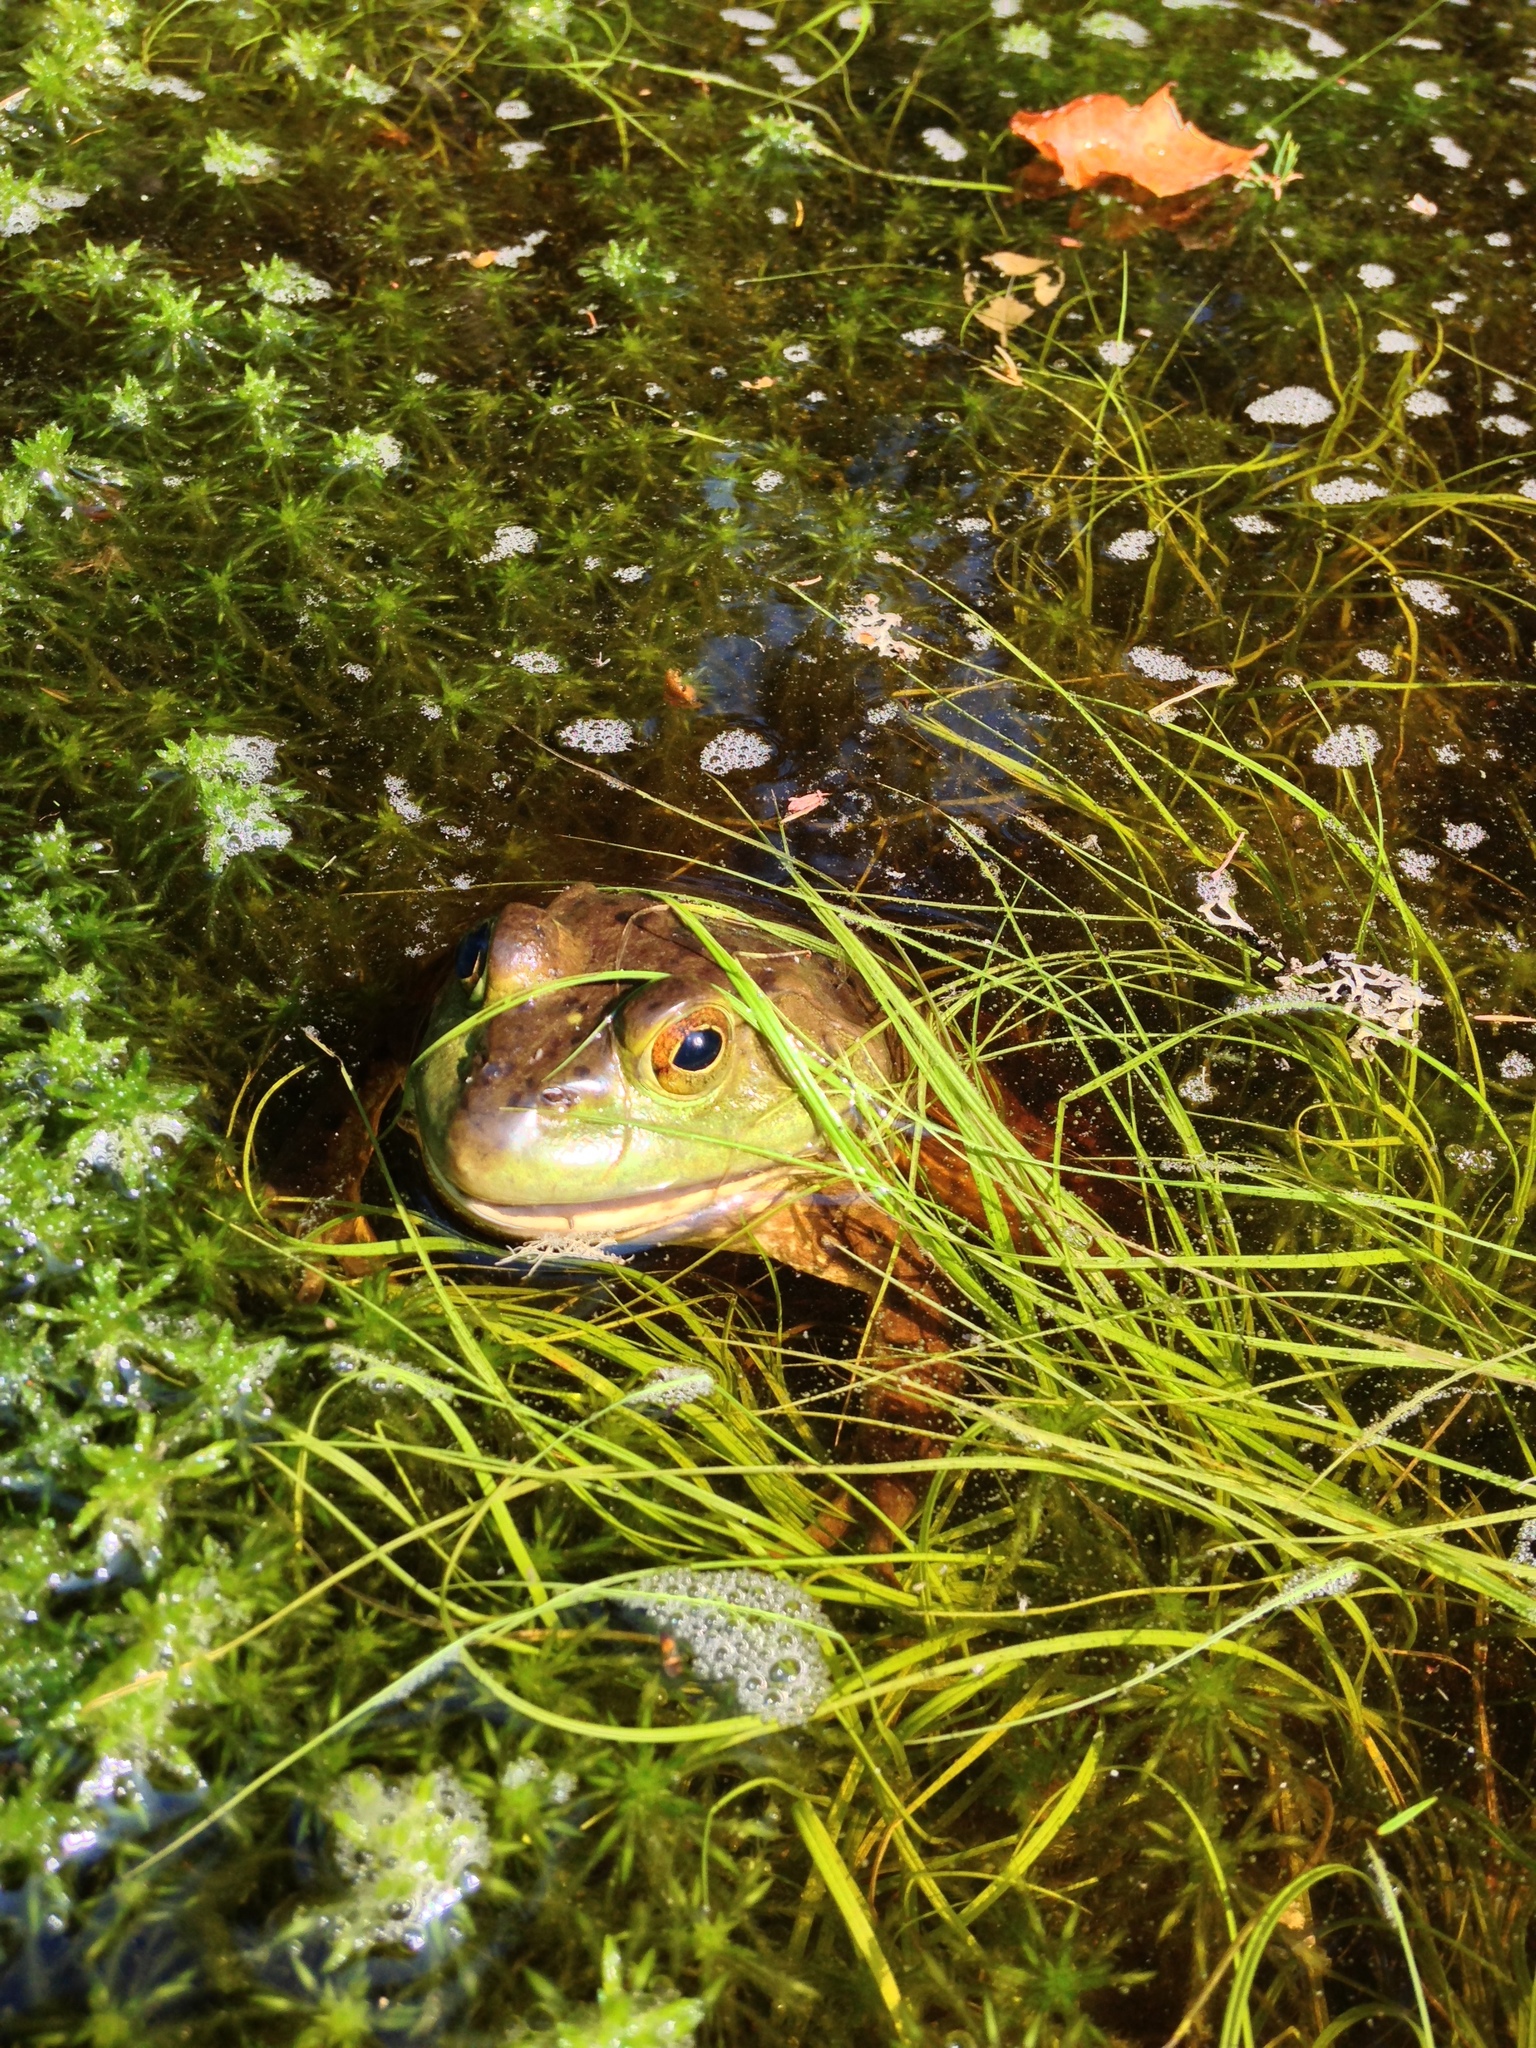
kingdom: Animalia
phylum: Chordata
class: Amphibia
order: Anura
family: Ranidae
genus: Lithobates
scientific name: Lithobates catesbeianus
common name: American bullfrog
